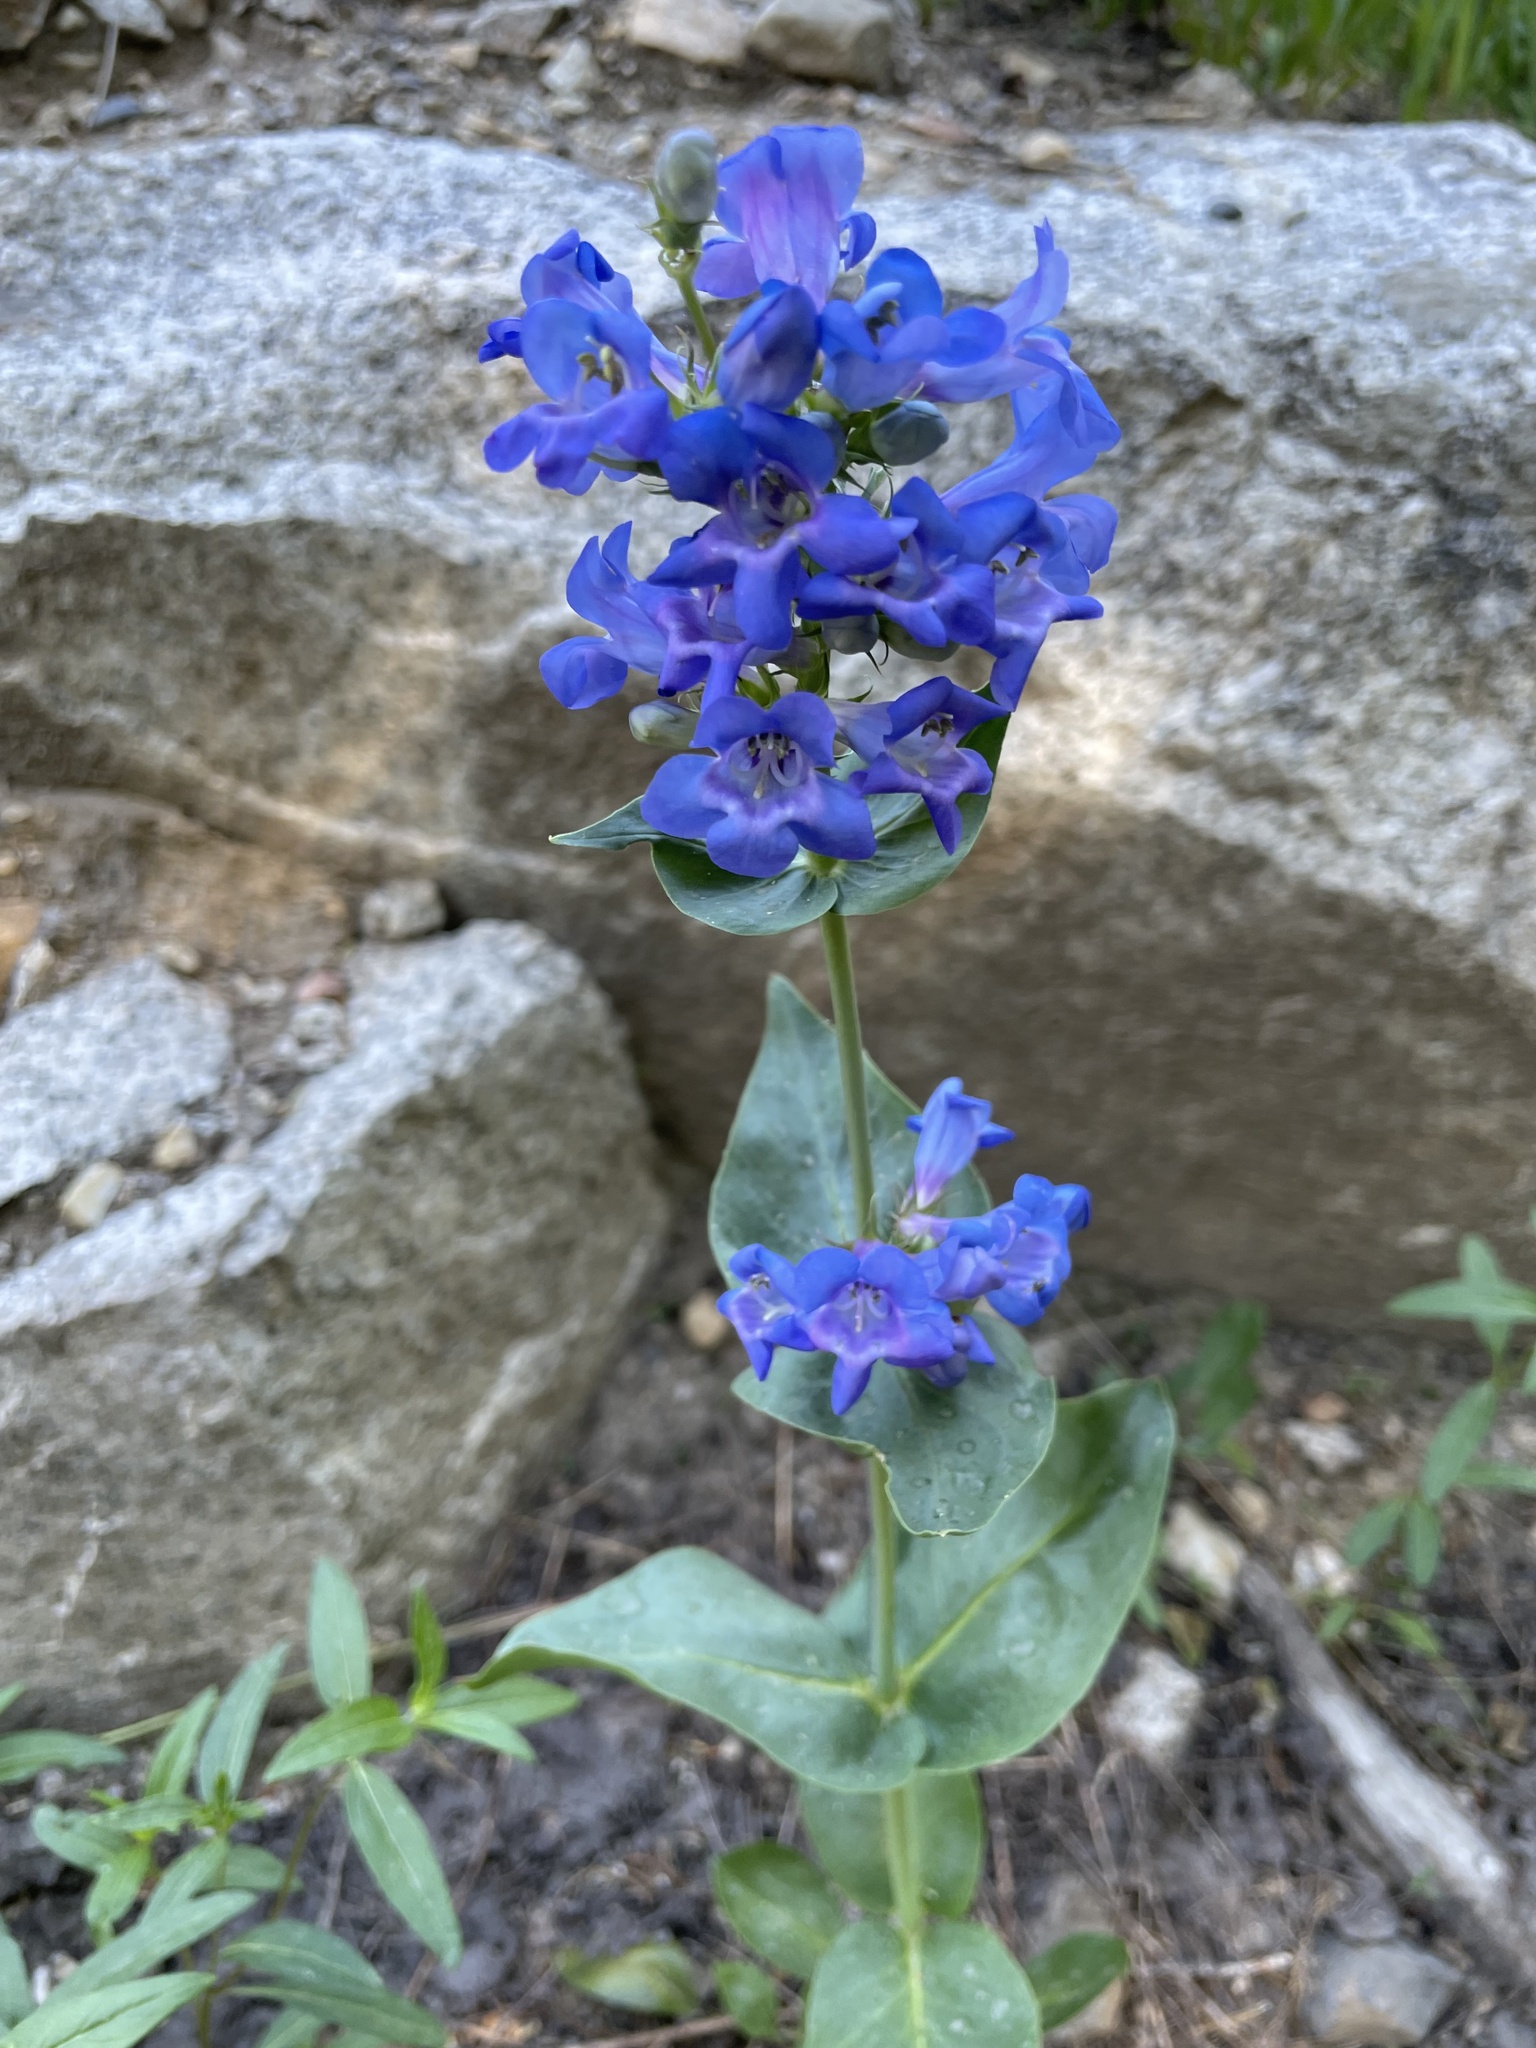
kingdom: Plantae
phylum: Tracheophyta
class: Magnoliopsida
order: Lamiales
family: Plantaginaceae
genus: Penstemon
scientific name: Penstemon cyananthus
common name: Wasatch penstemon
